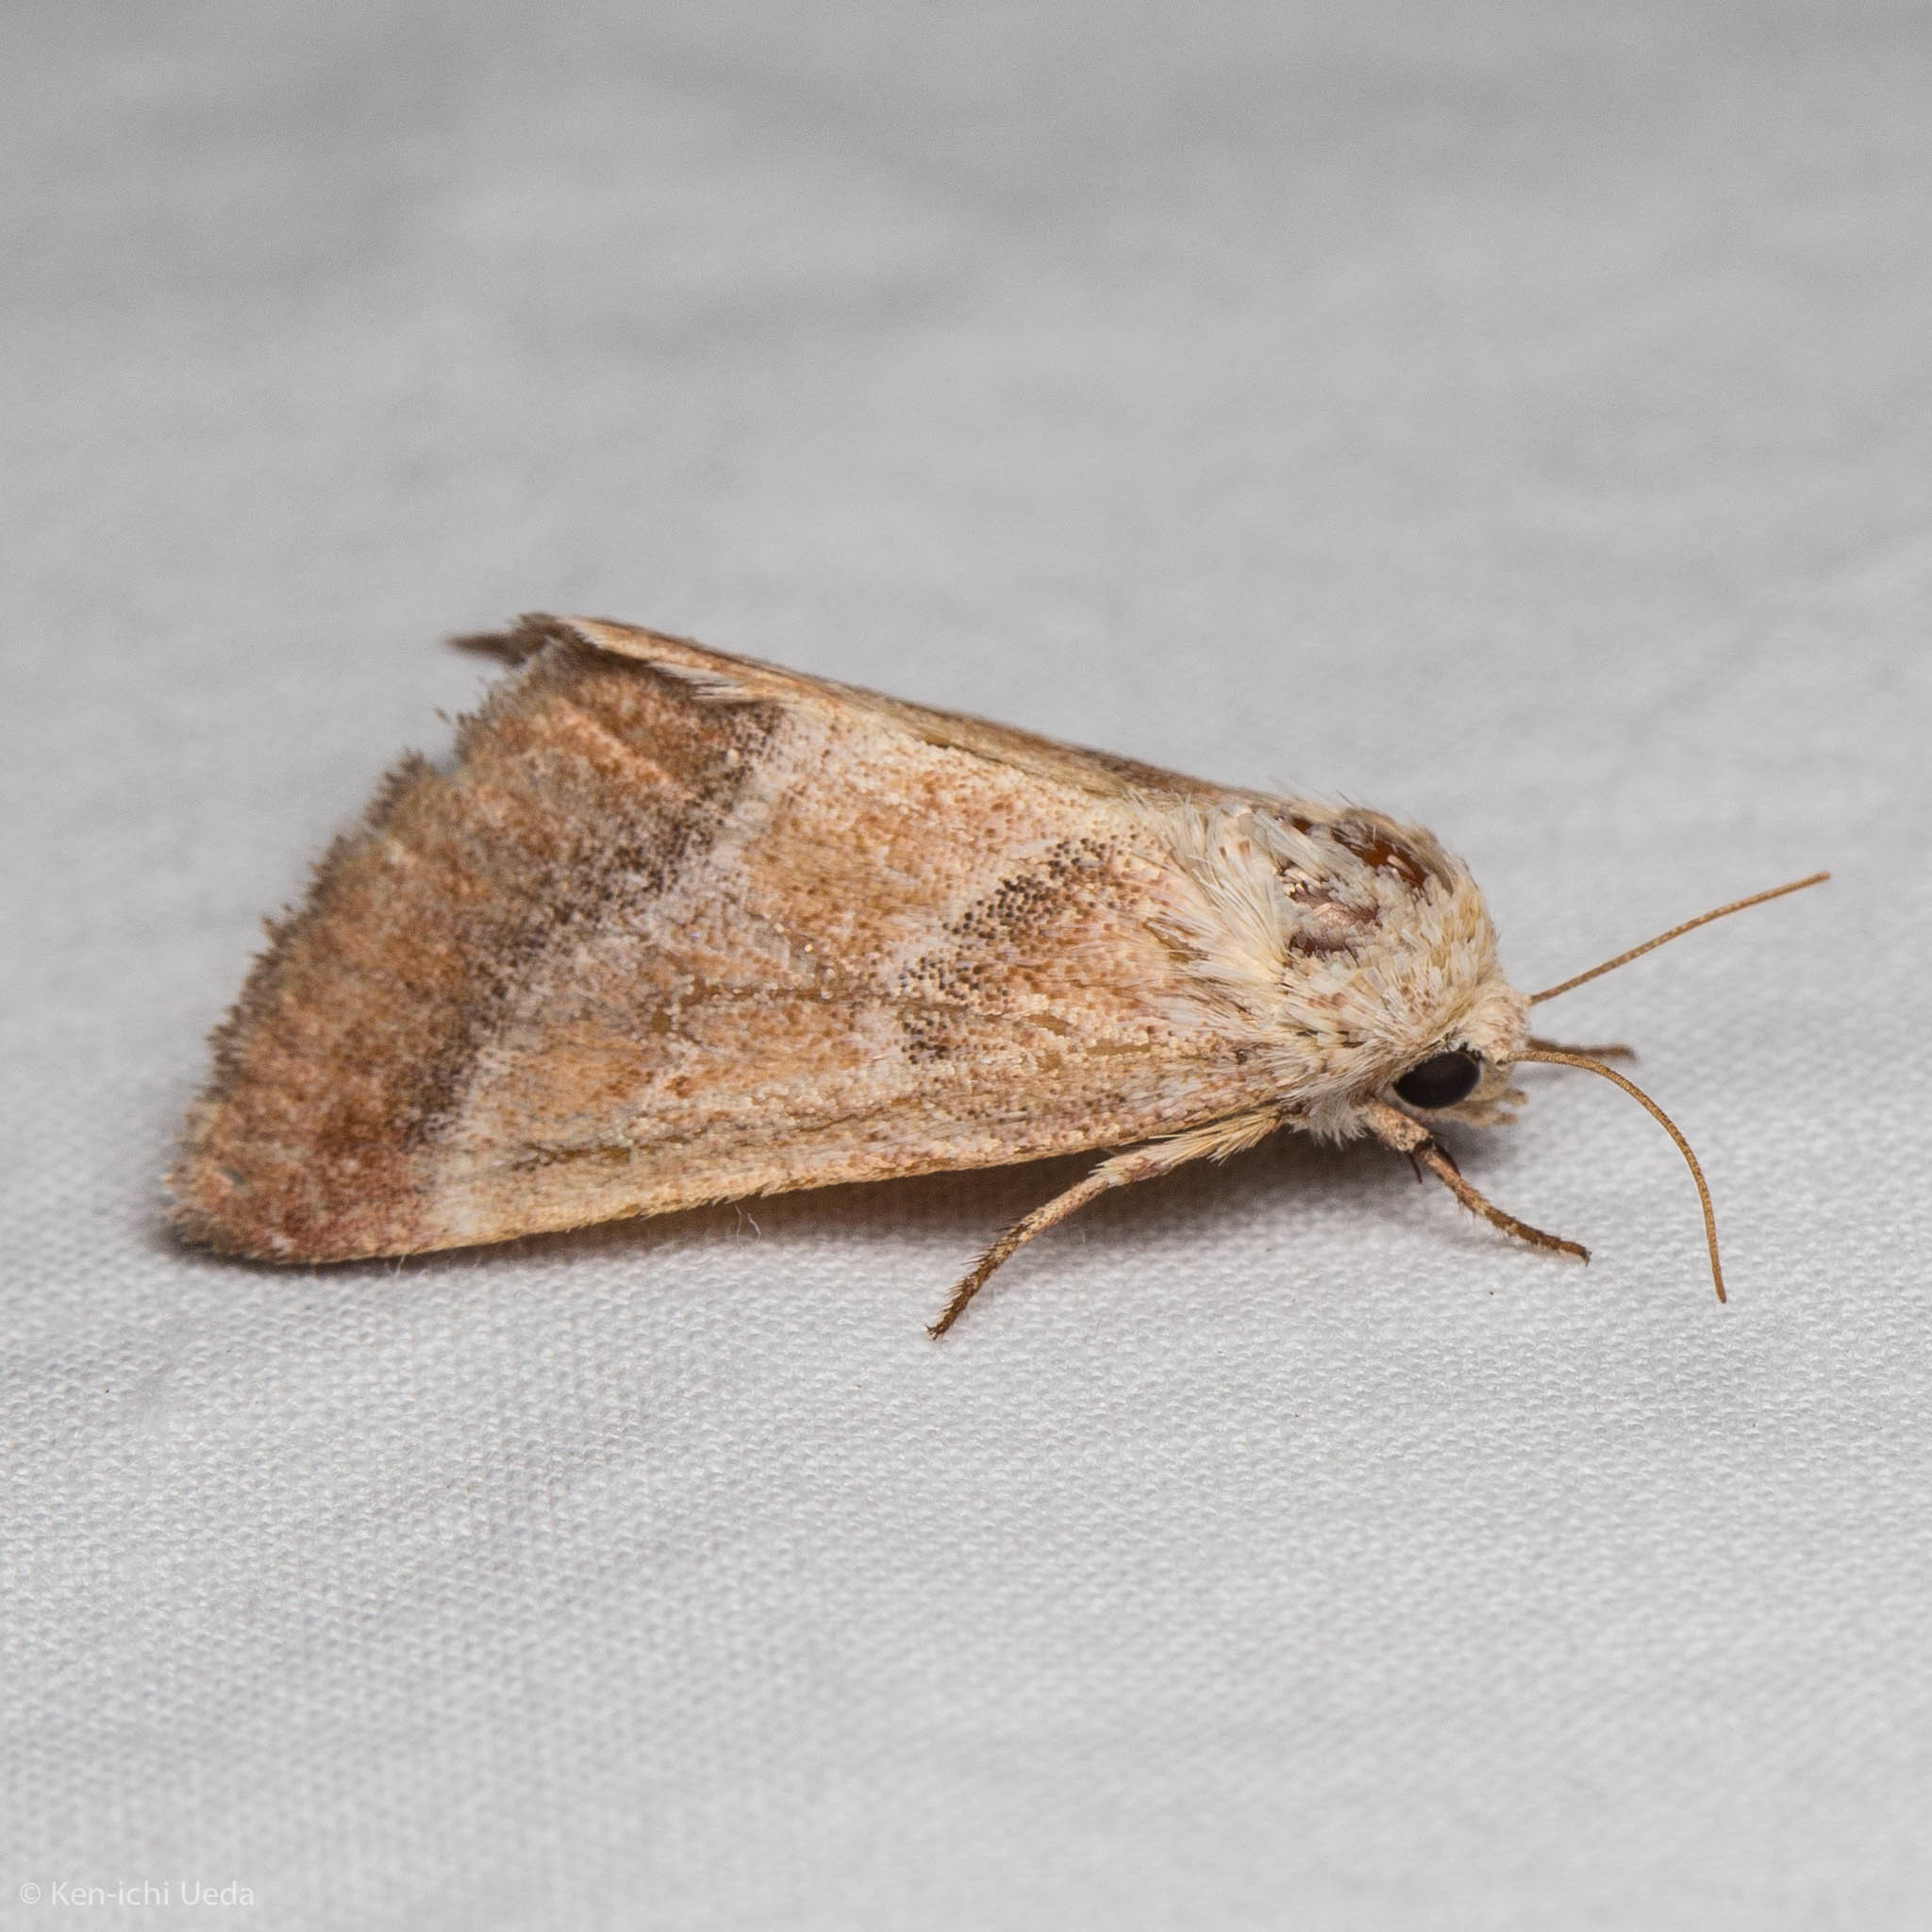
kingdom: Animalia
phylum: Arthropoda
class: Insecta
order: Lepidoptera
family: Noctuidae
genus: Schinia
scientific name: Schinia buta
